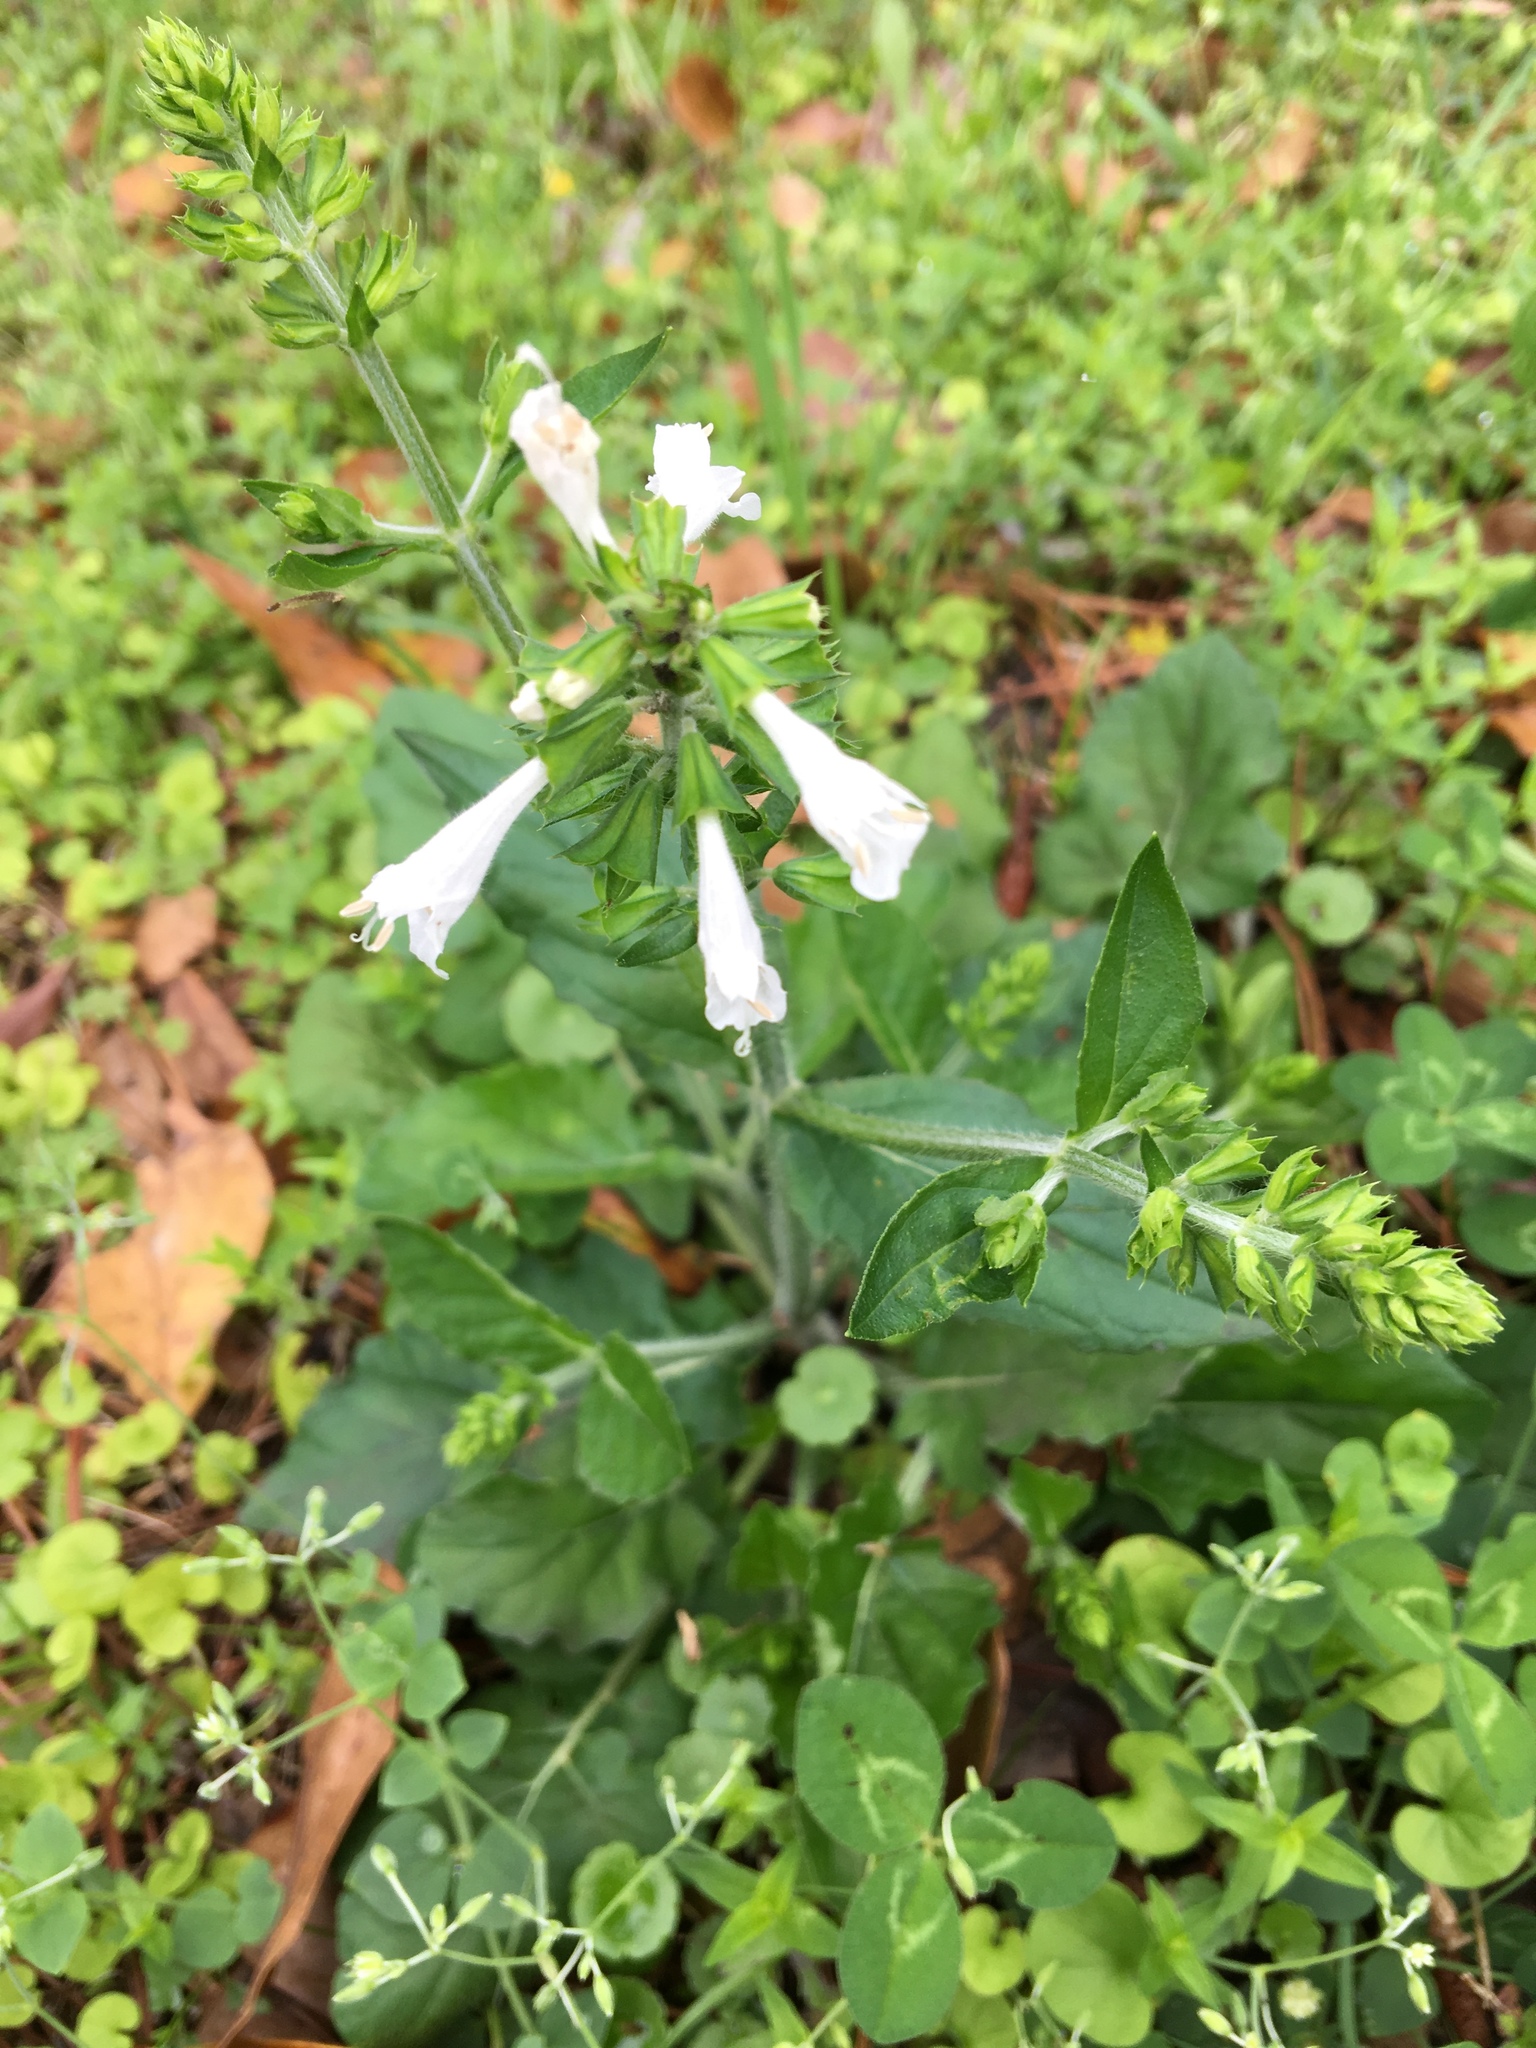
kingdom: Plantae
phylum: Tracheophyta
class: Magnoliopsida
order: Lamiales
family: Lamiaceae
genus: Salvia
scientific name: Salvia lyrata
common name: Cancerweed
